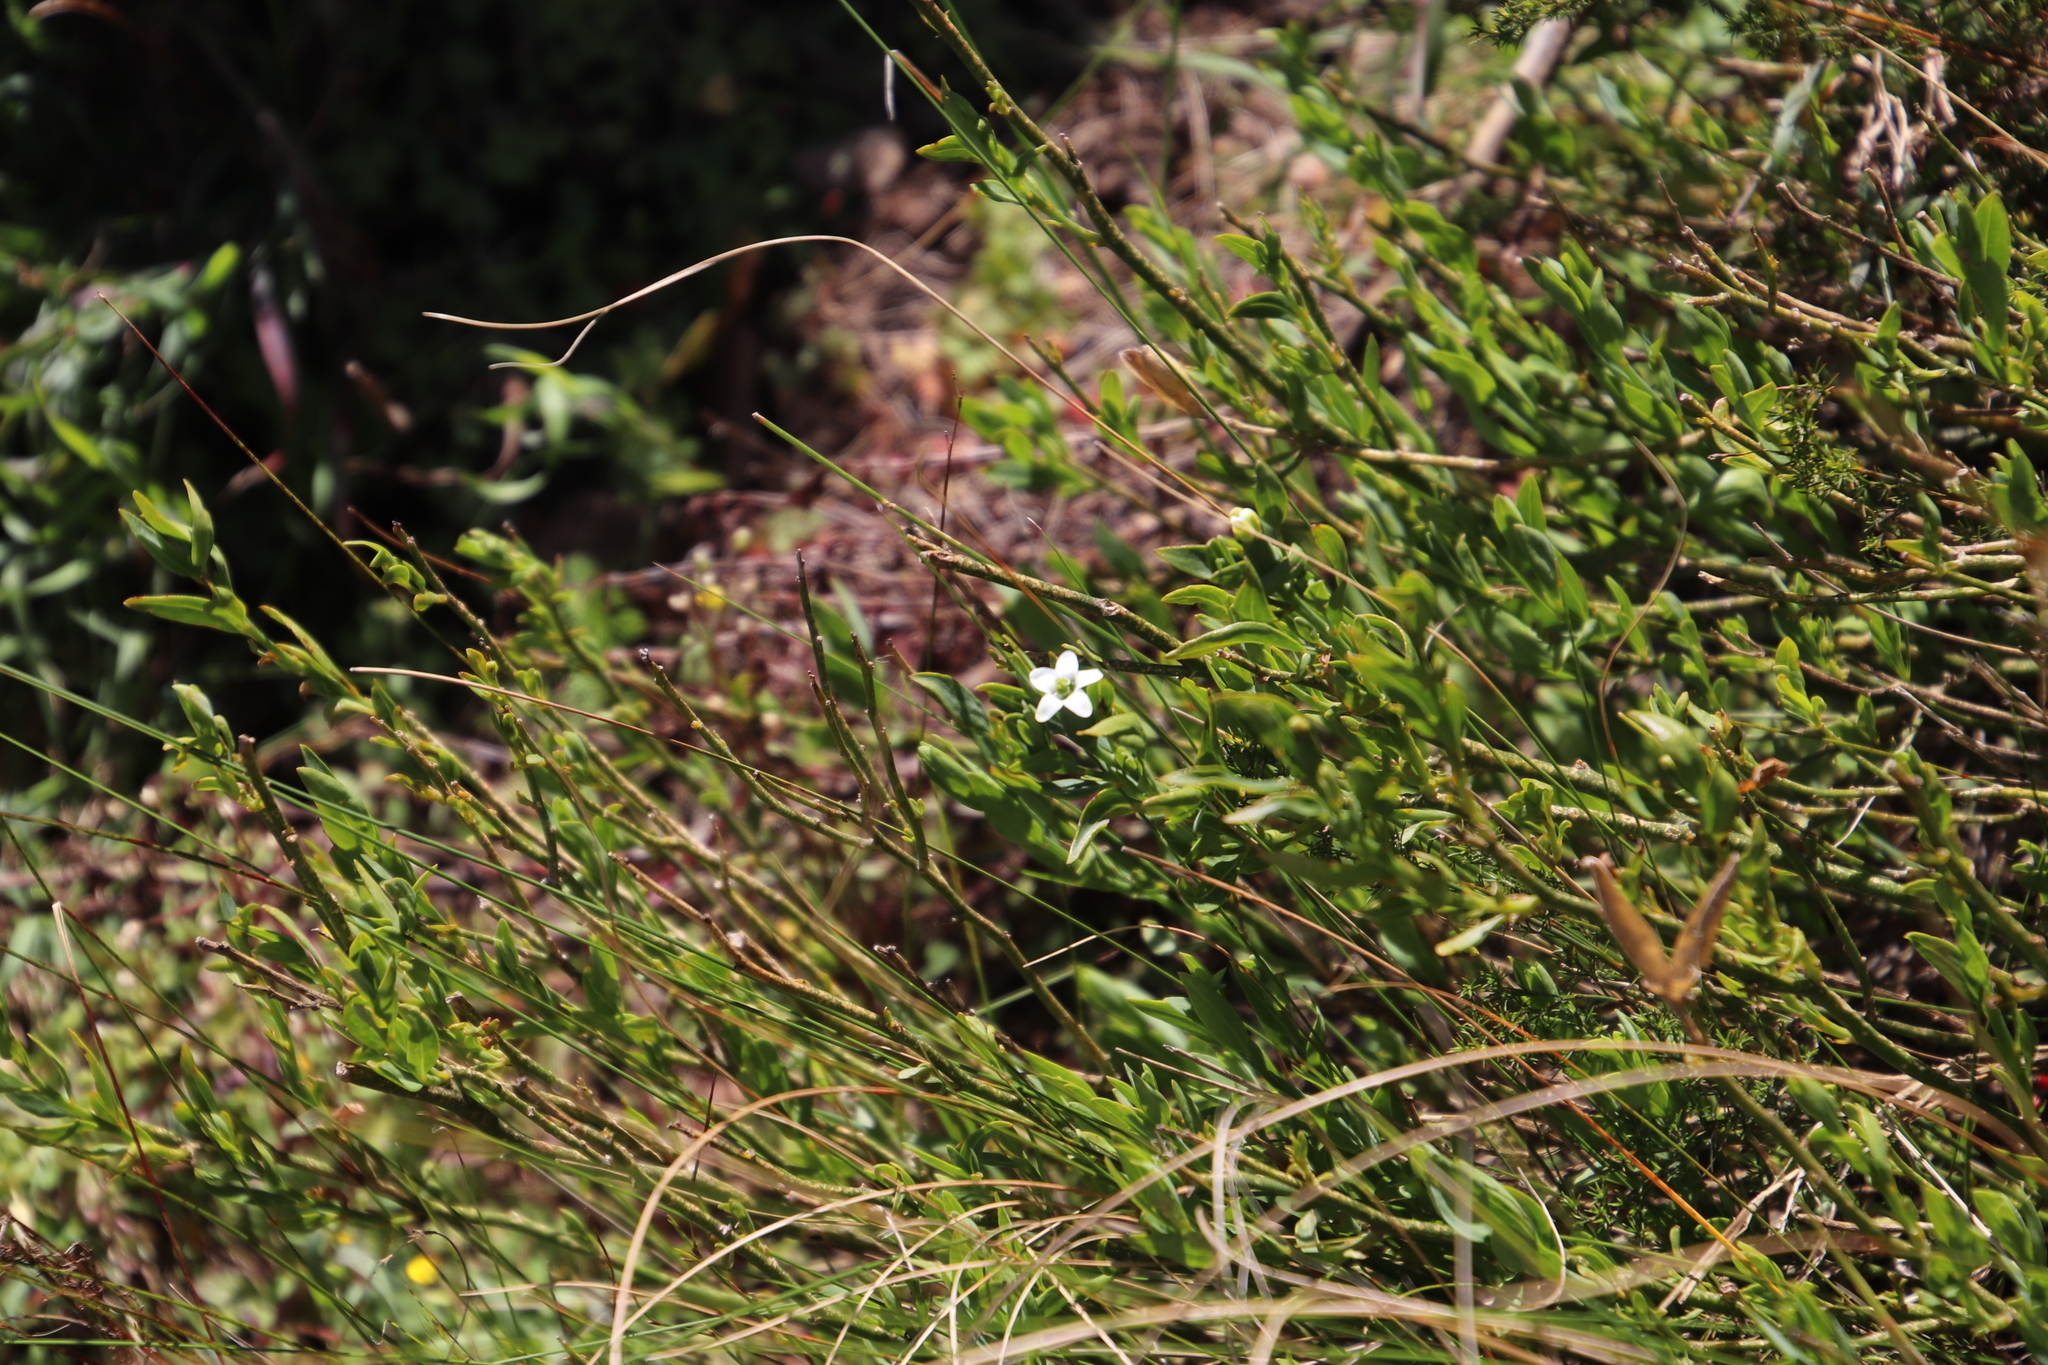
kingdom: Plantae
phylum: Tracheophyta
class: Magnoliopsida
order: Solanales
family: Montiniaceae
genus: Montinia
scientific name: Montinia caryophyllacea
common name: Wild clove-bush
